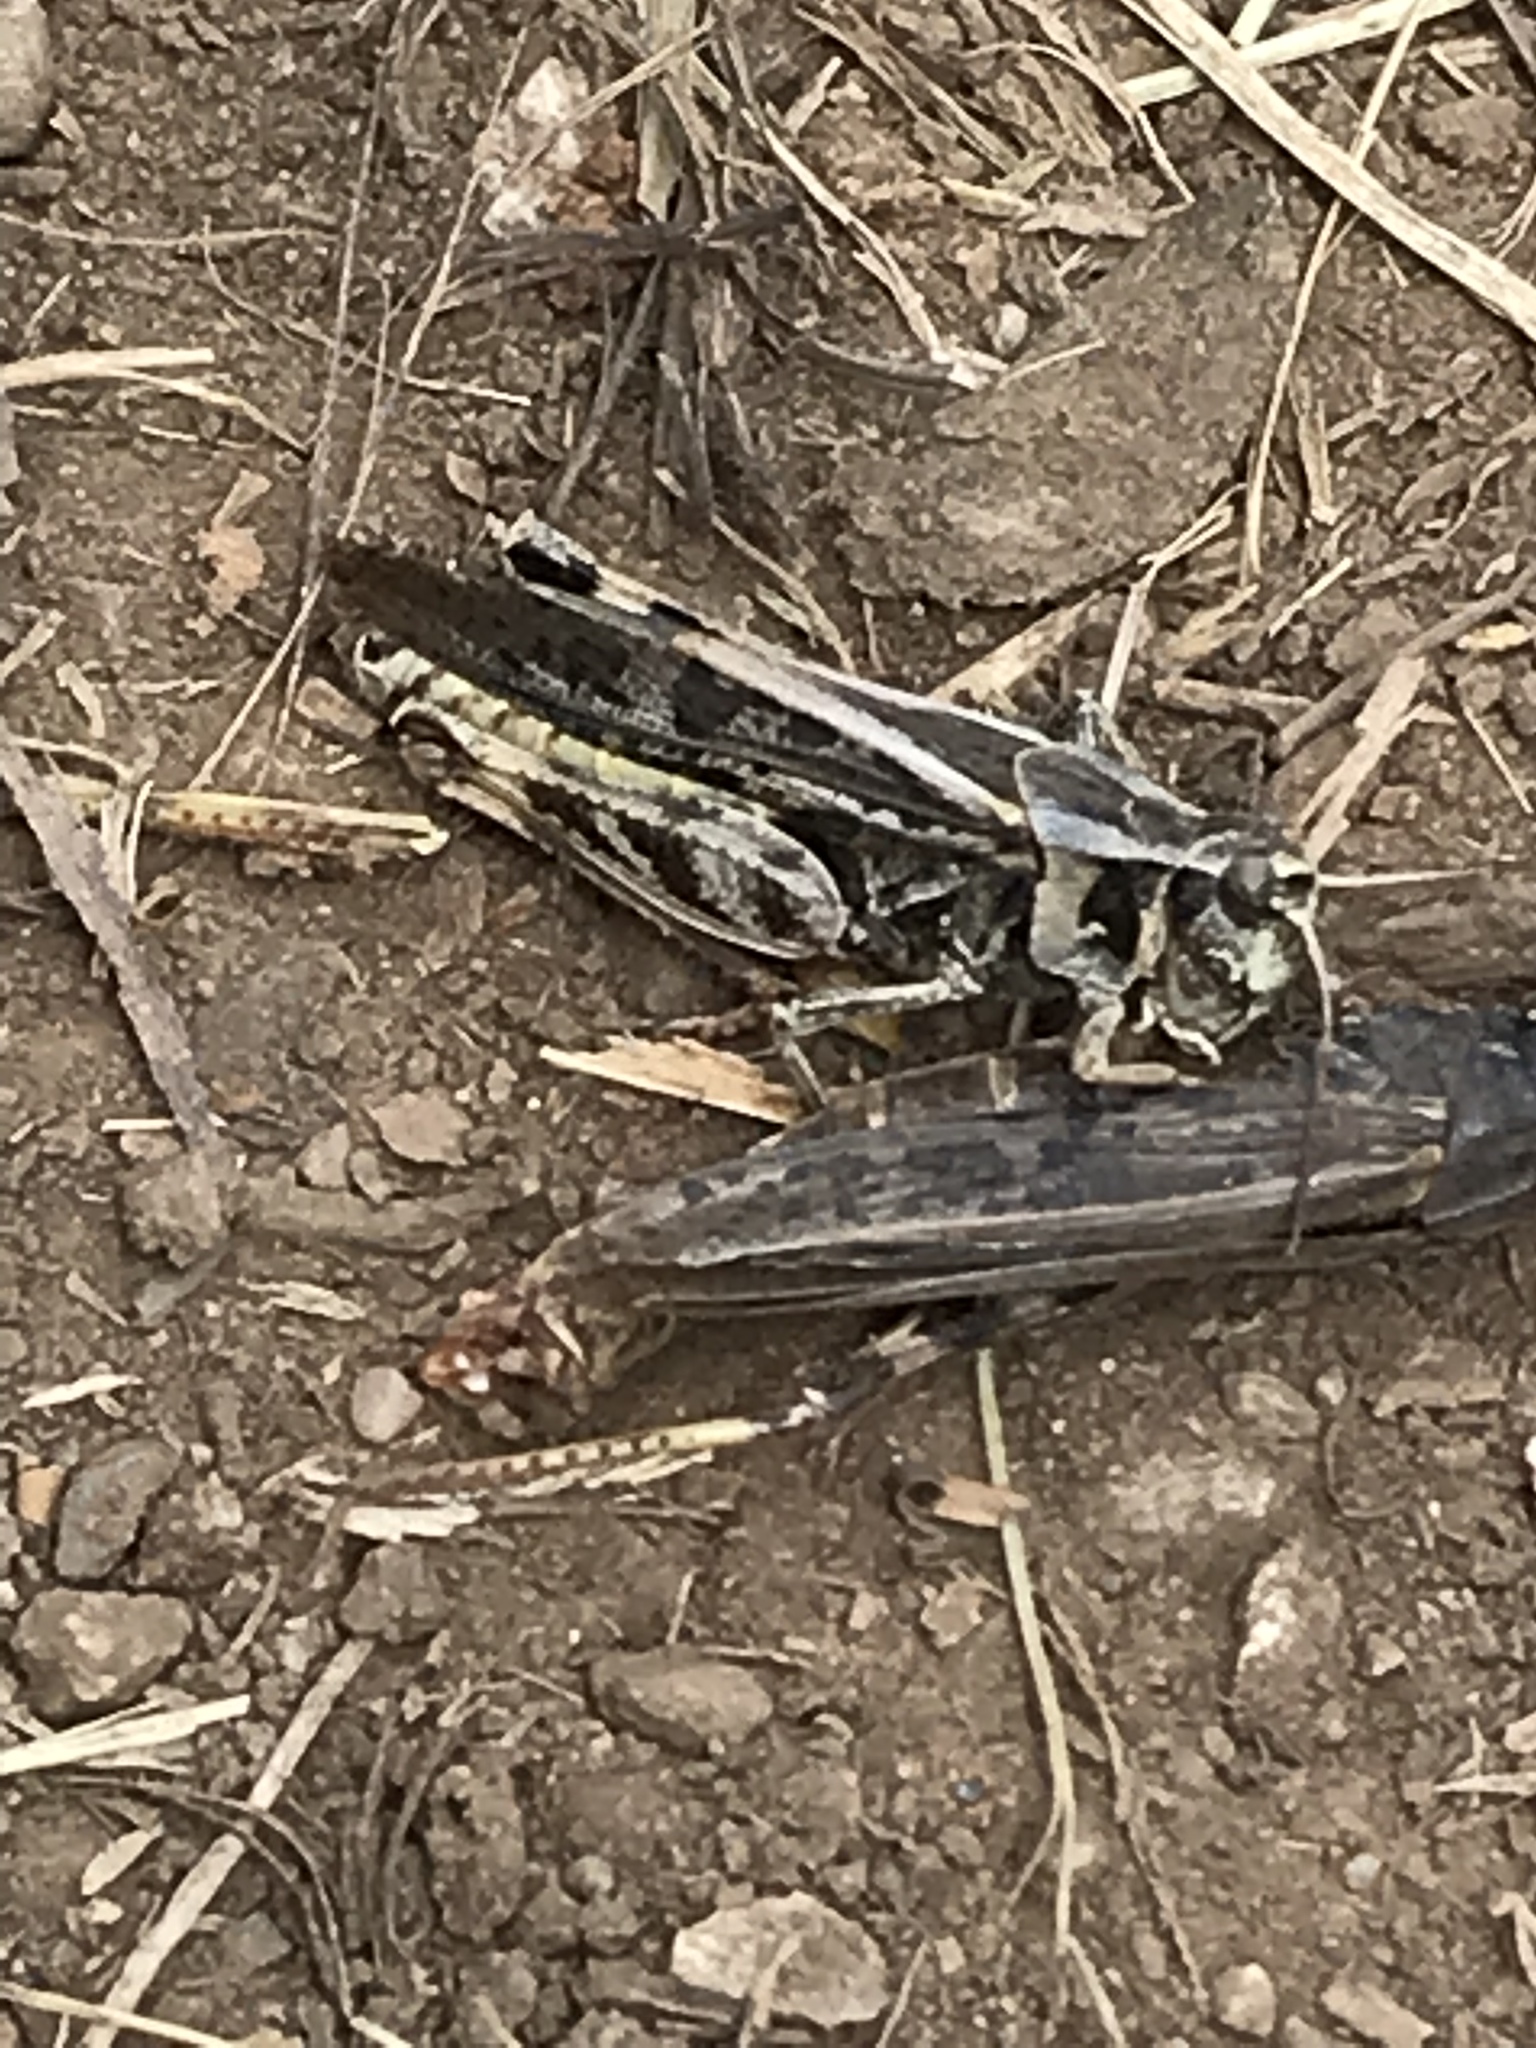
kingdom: Animalia
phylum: Arthropoda
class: Insecta
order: Orthoptera
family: Acrididae
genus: Camnula
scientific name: Camnula pellucida
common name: Clear-winged grasshopper
